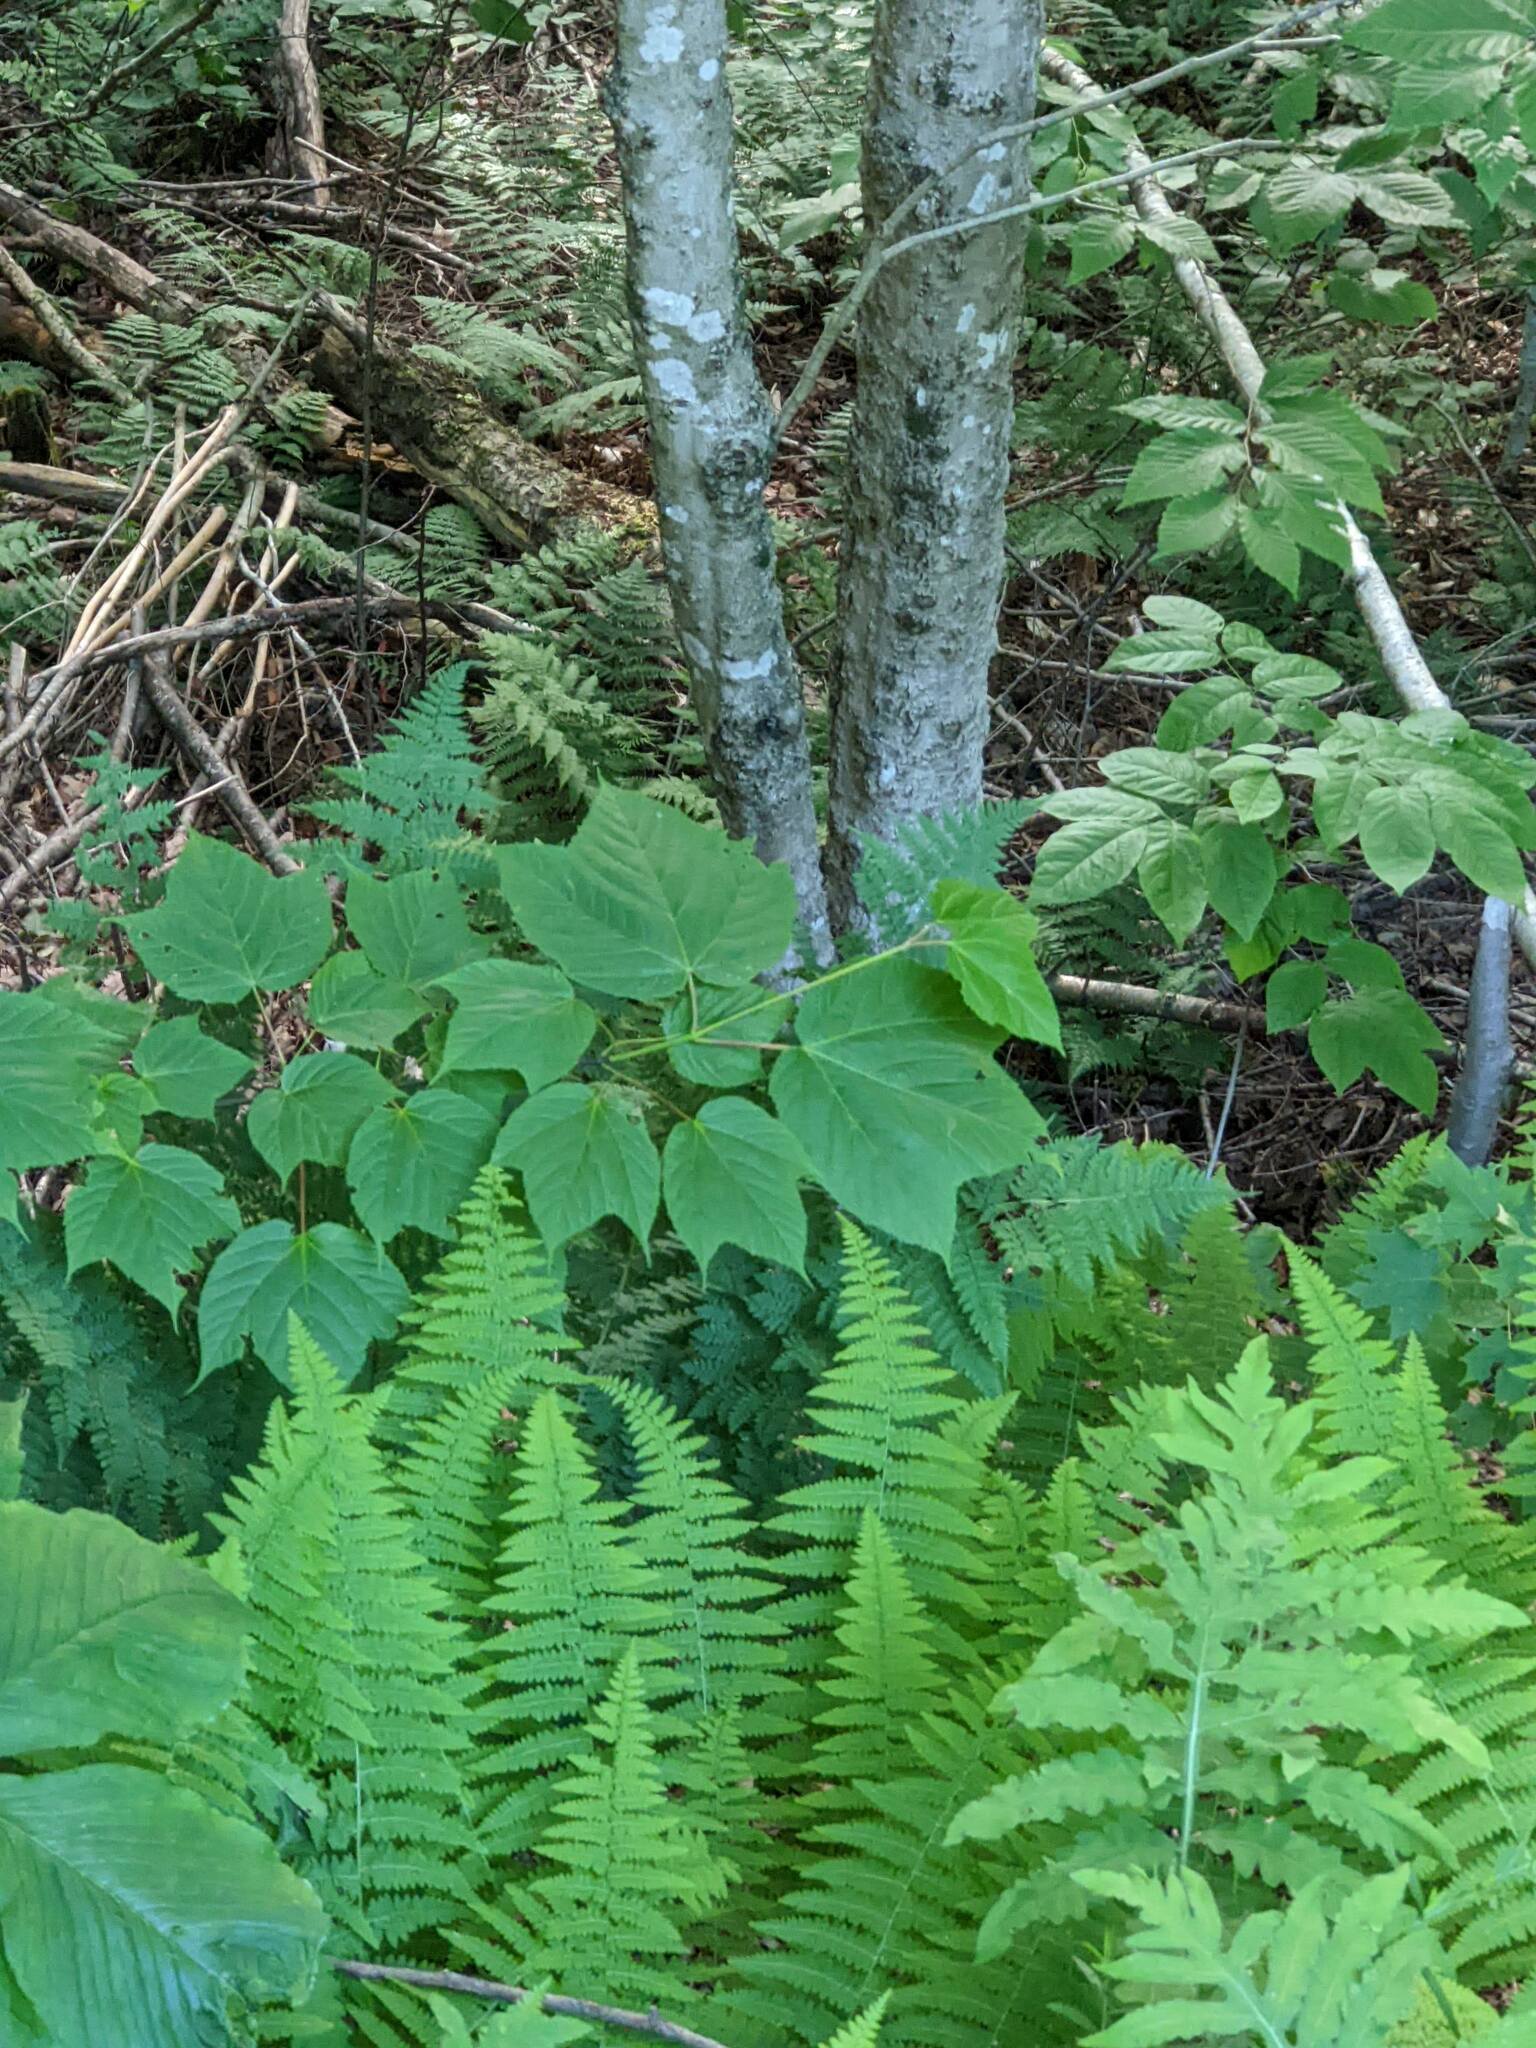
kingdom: Plantae
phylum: Tracheophyta
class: Magnoliopsida
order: Sapindales
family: Sapindaceae
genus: Acer
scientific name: Acer pensylvanicum
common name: Moosewood
